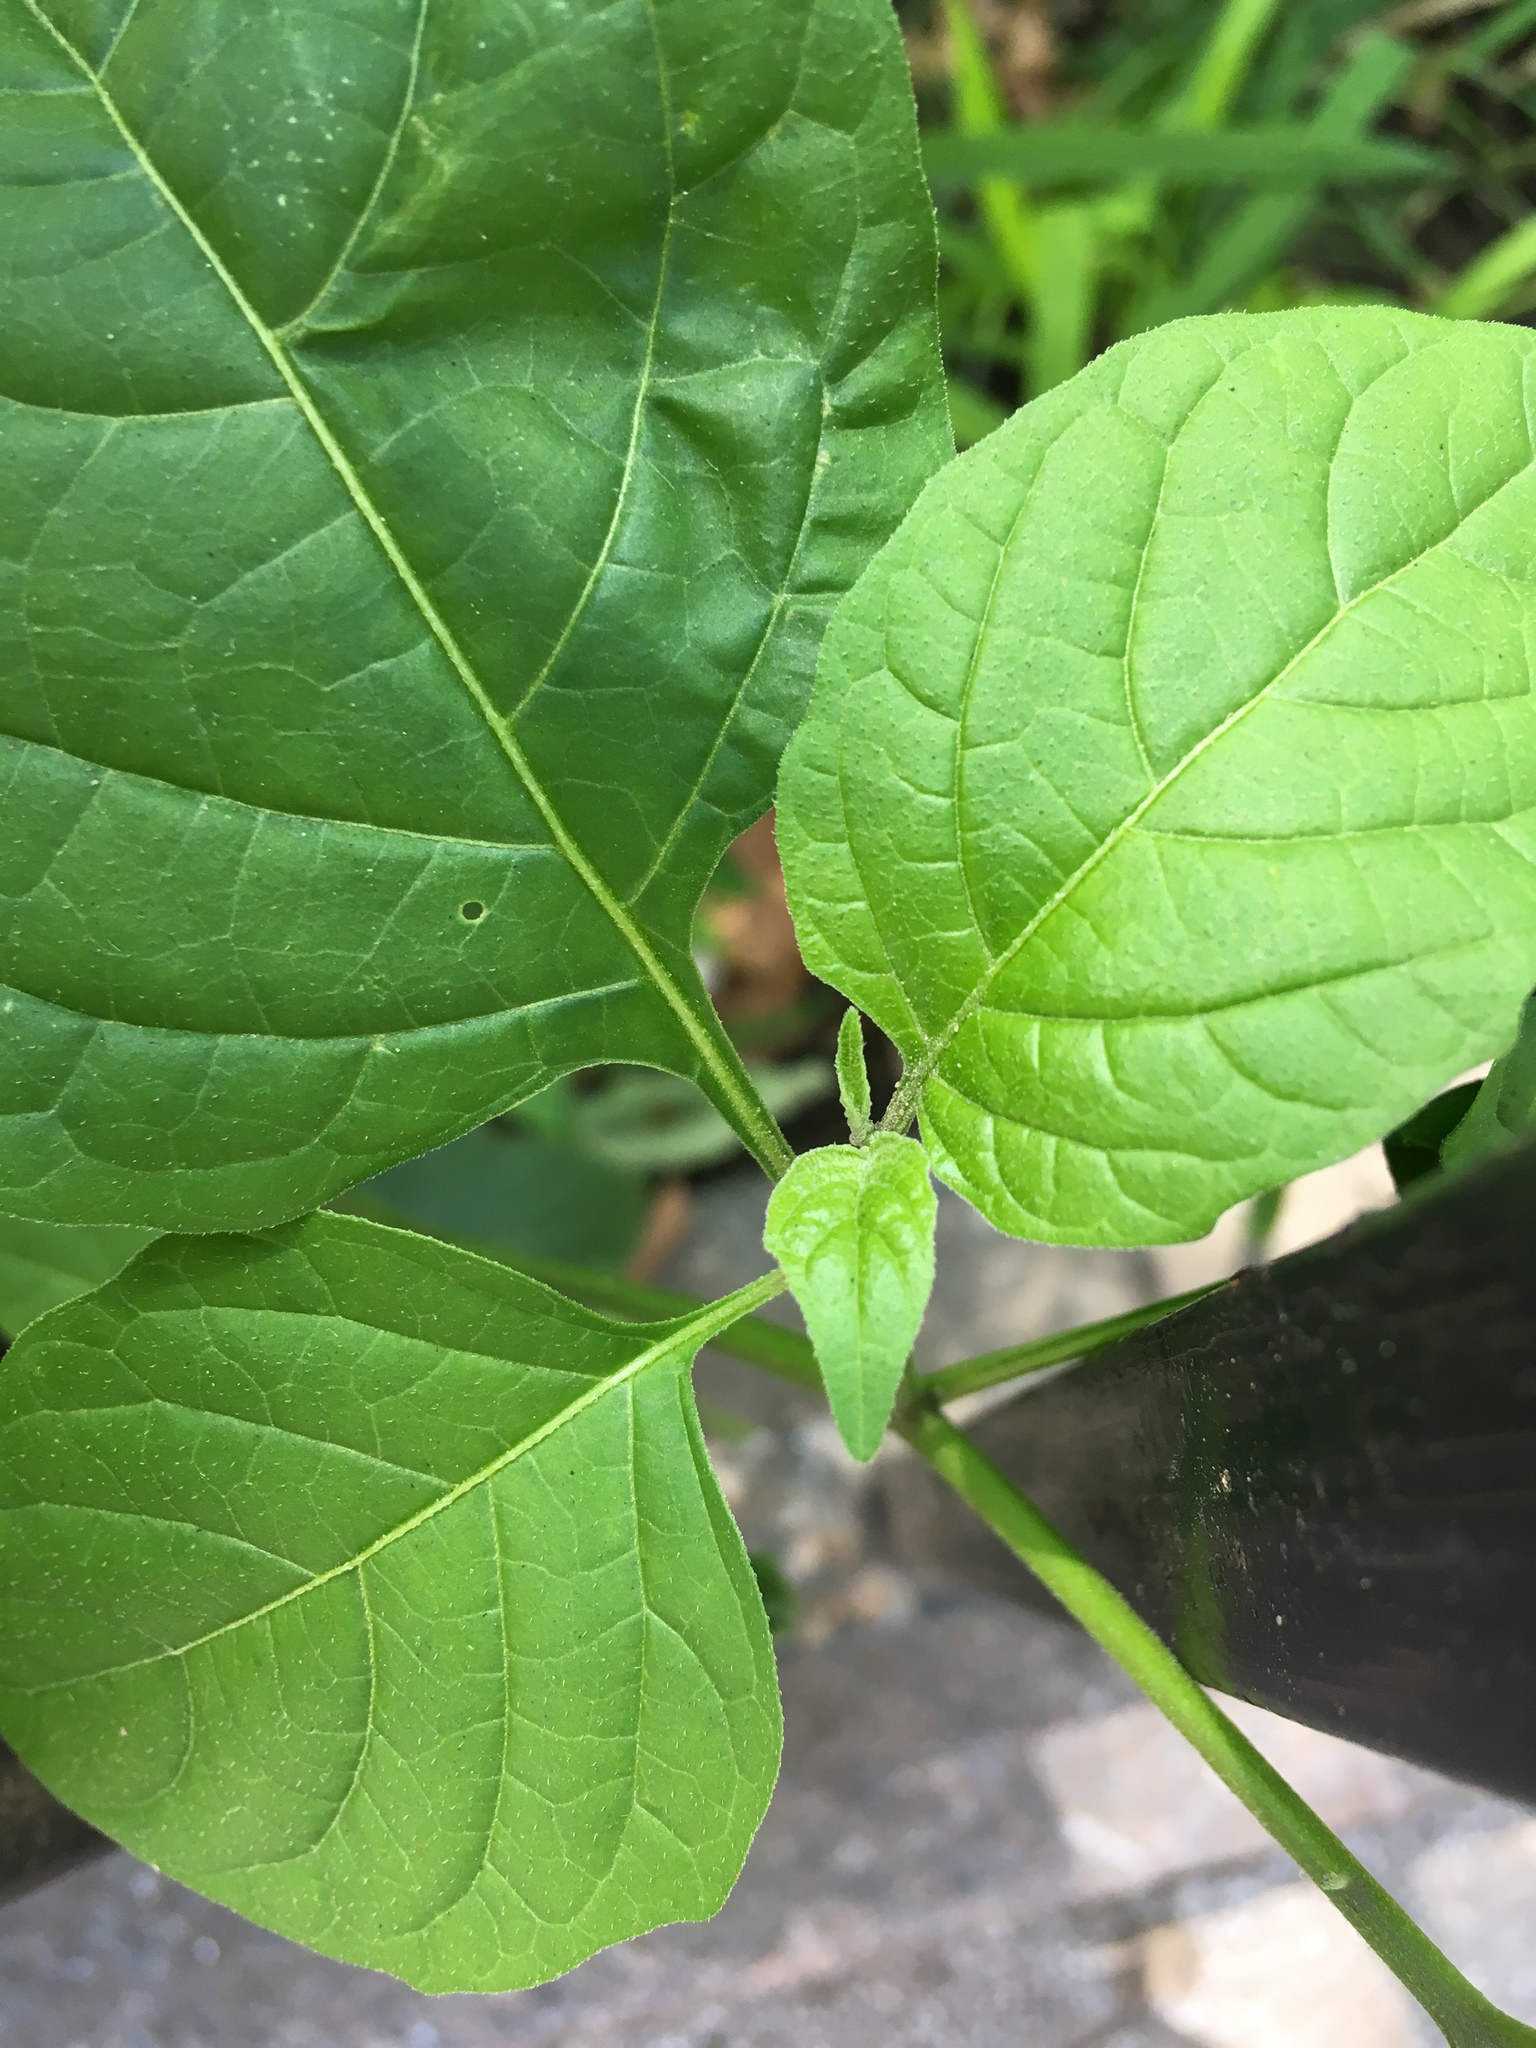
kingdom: Plantae
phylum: Tracheophyta
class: Magnoliopsida
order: Solanales
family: Solanaceae
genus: Solanum
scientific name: Solanum emulans
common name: Eastern black nightshade
